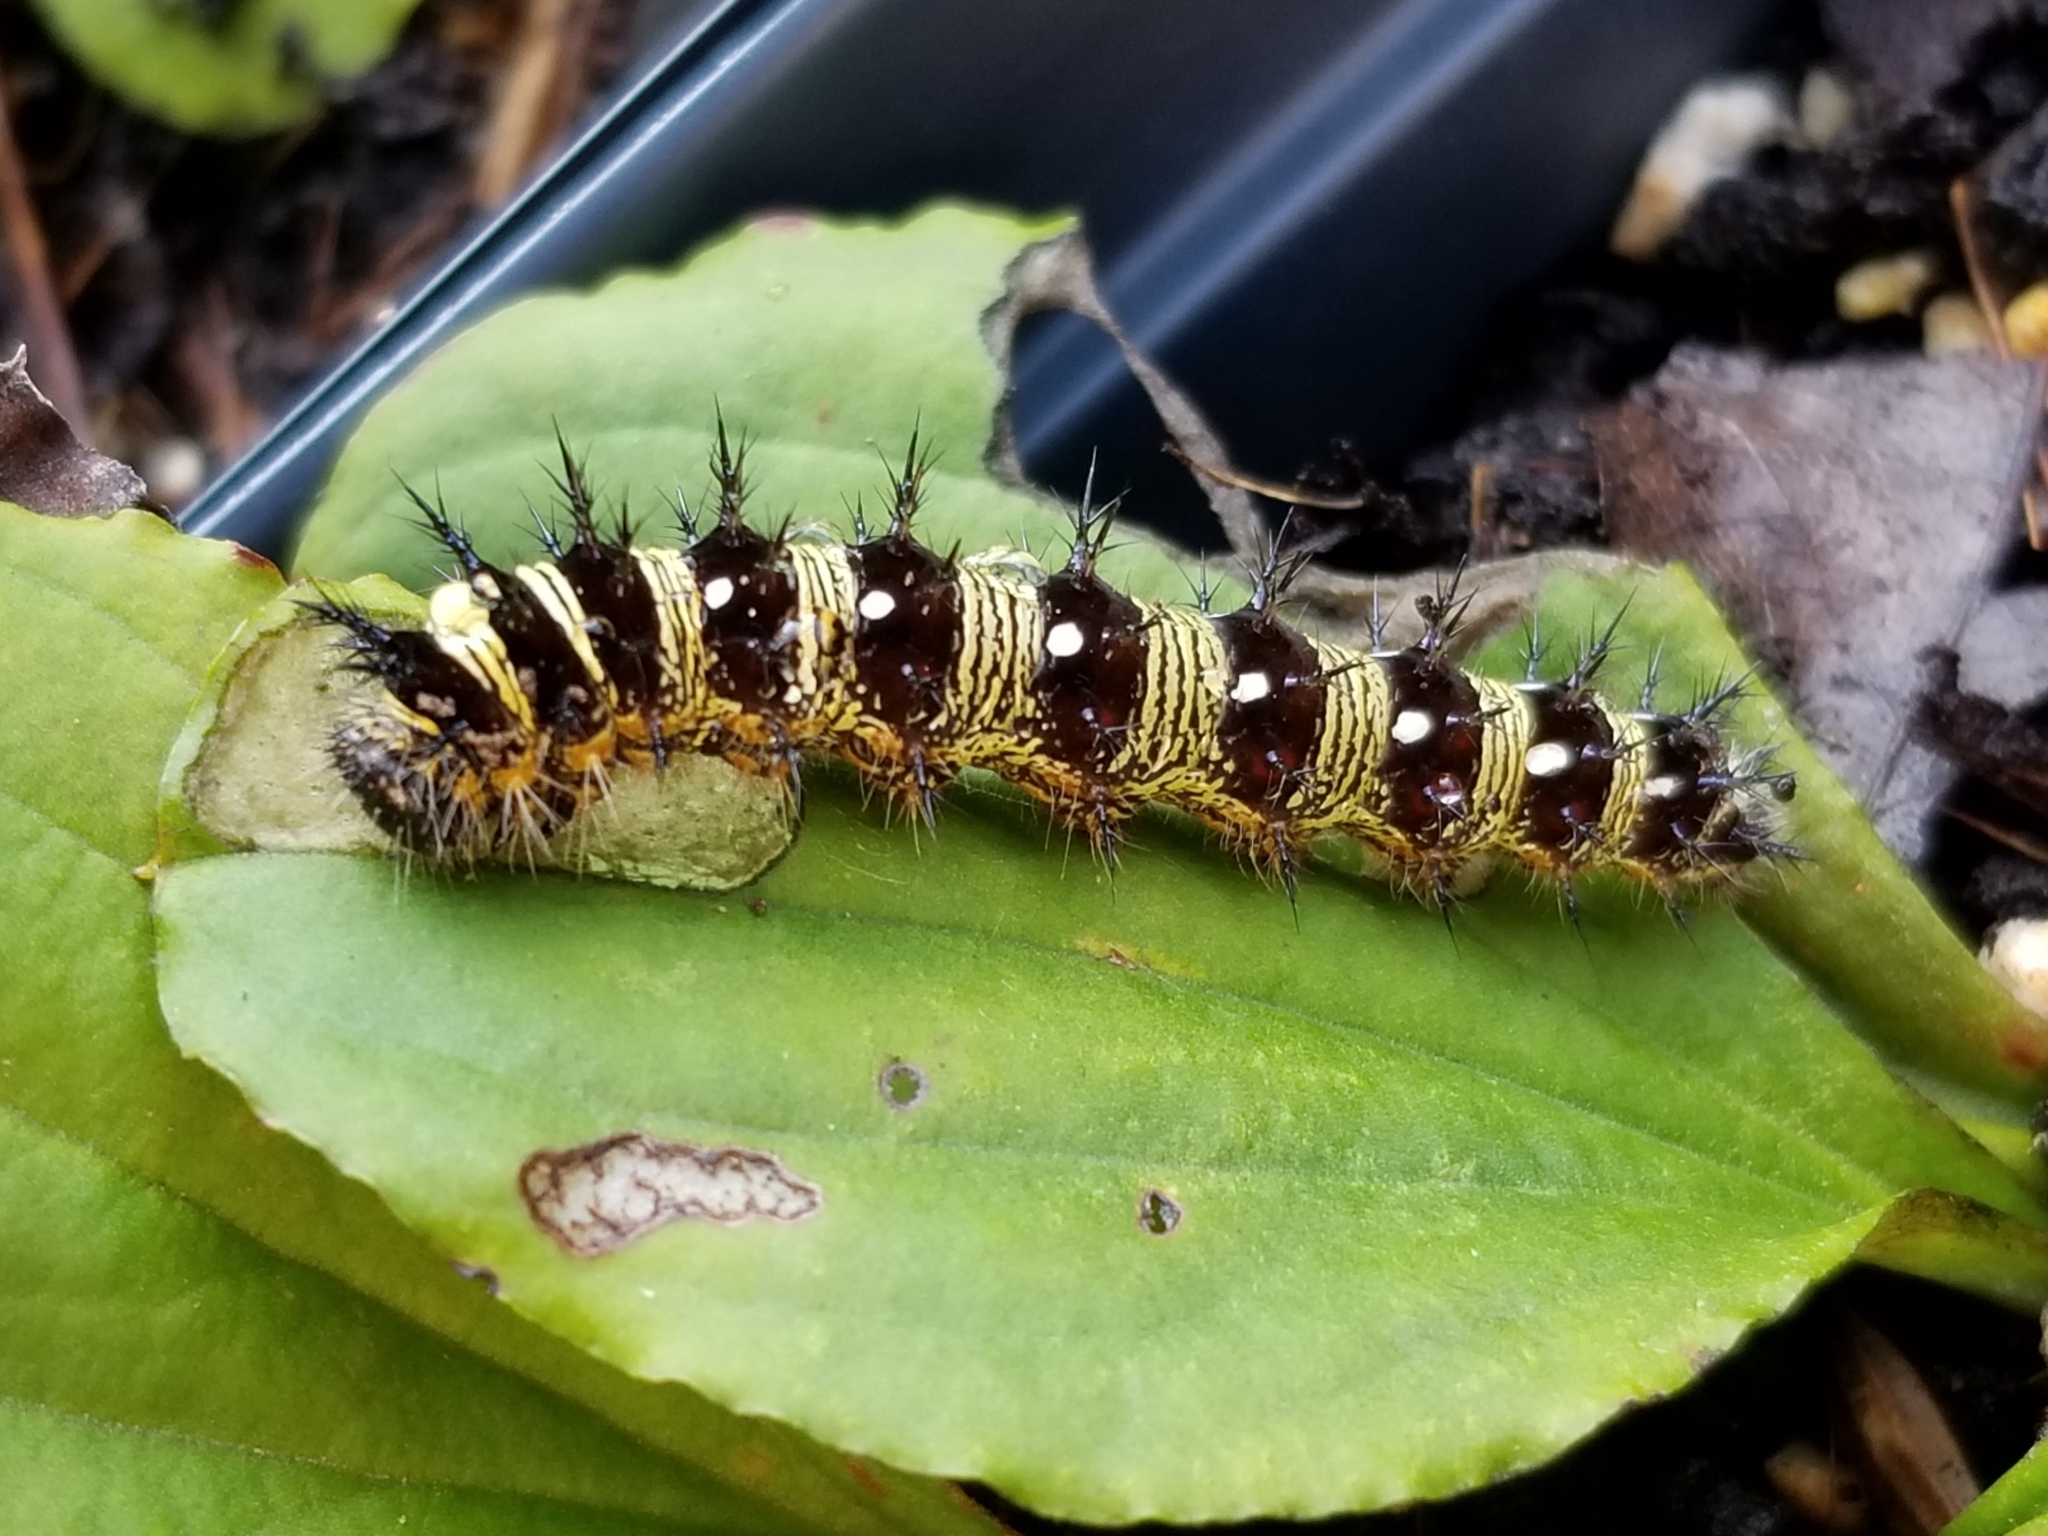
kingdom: Animalia
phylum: Arthropoda
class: Insecta
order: Lepidoptera
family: Nymphalidae
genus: Vanessa
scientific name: Vanessa virginiensis
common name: American lady
